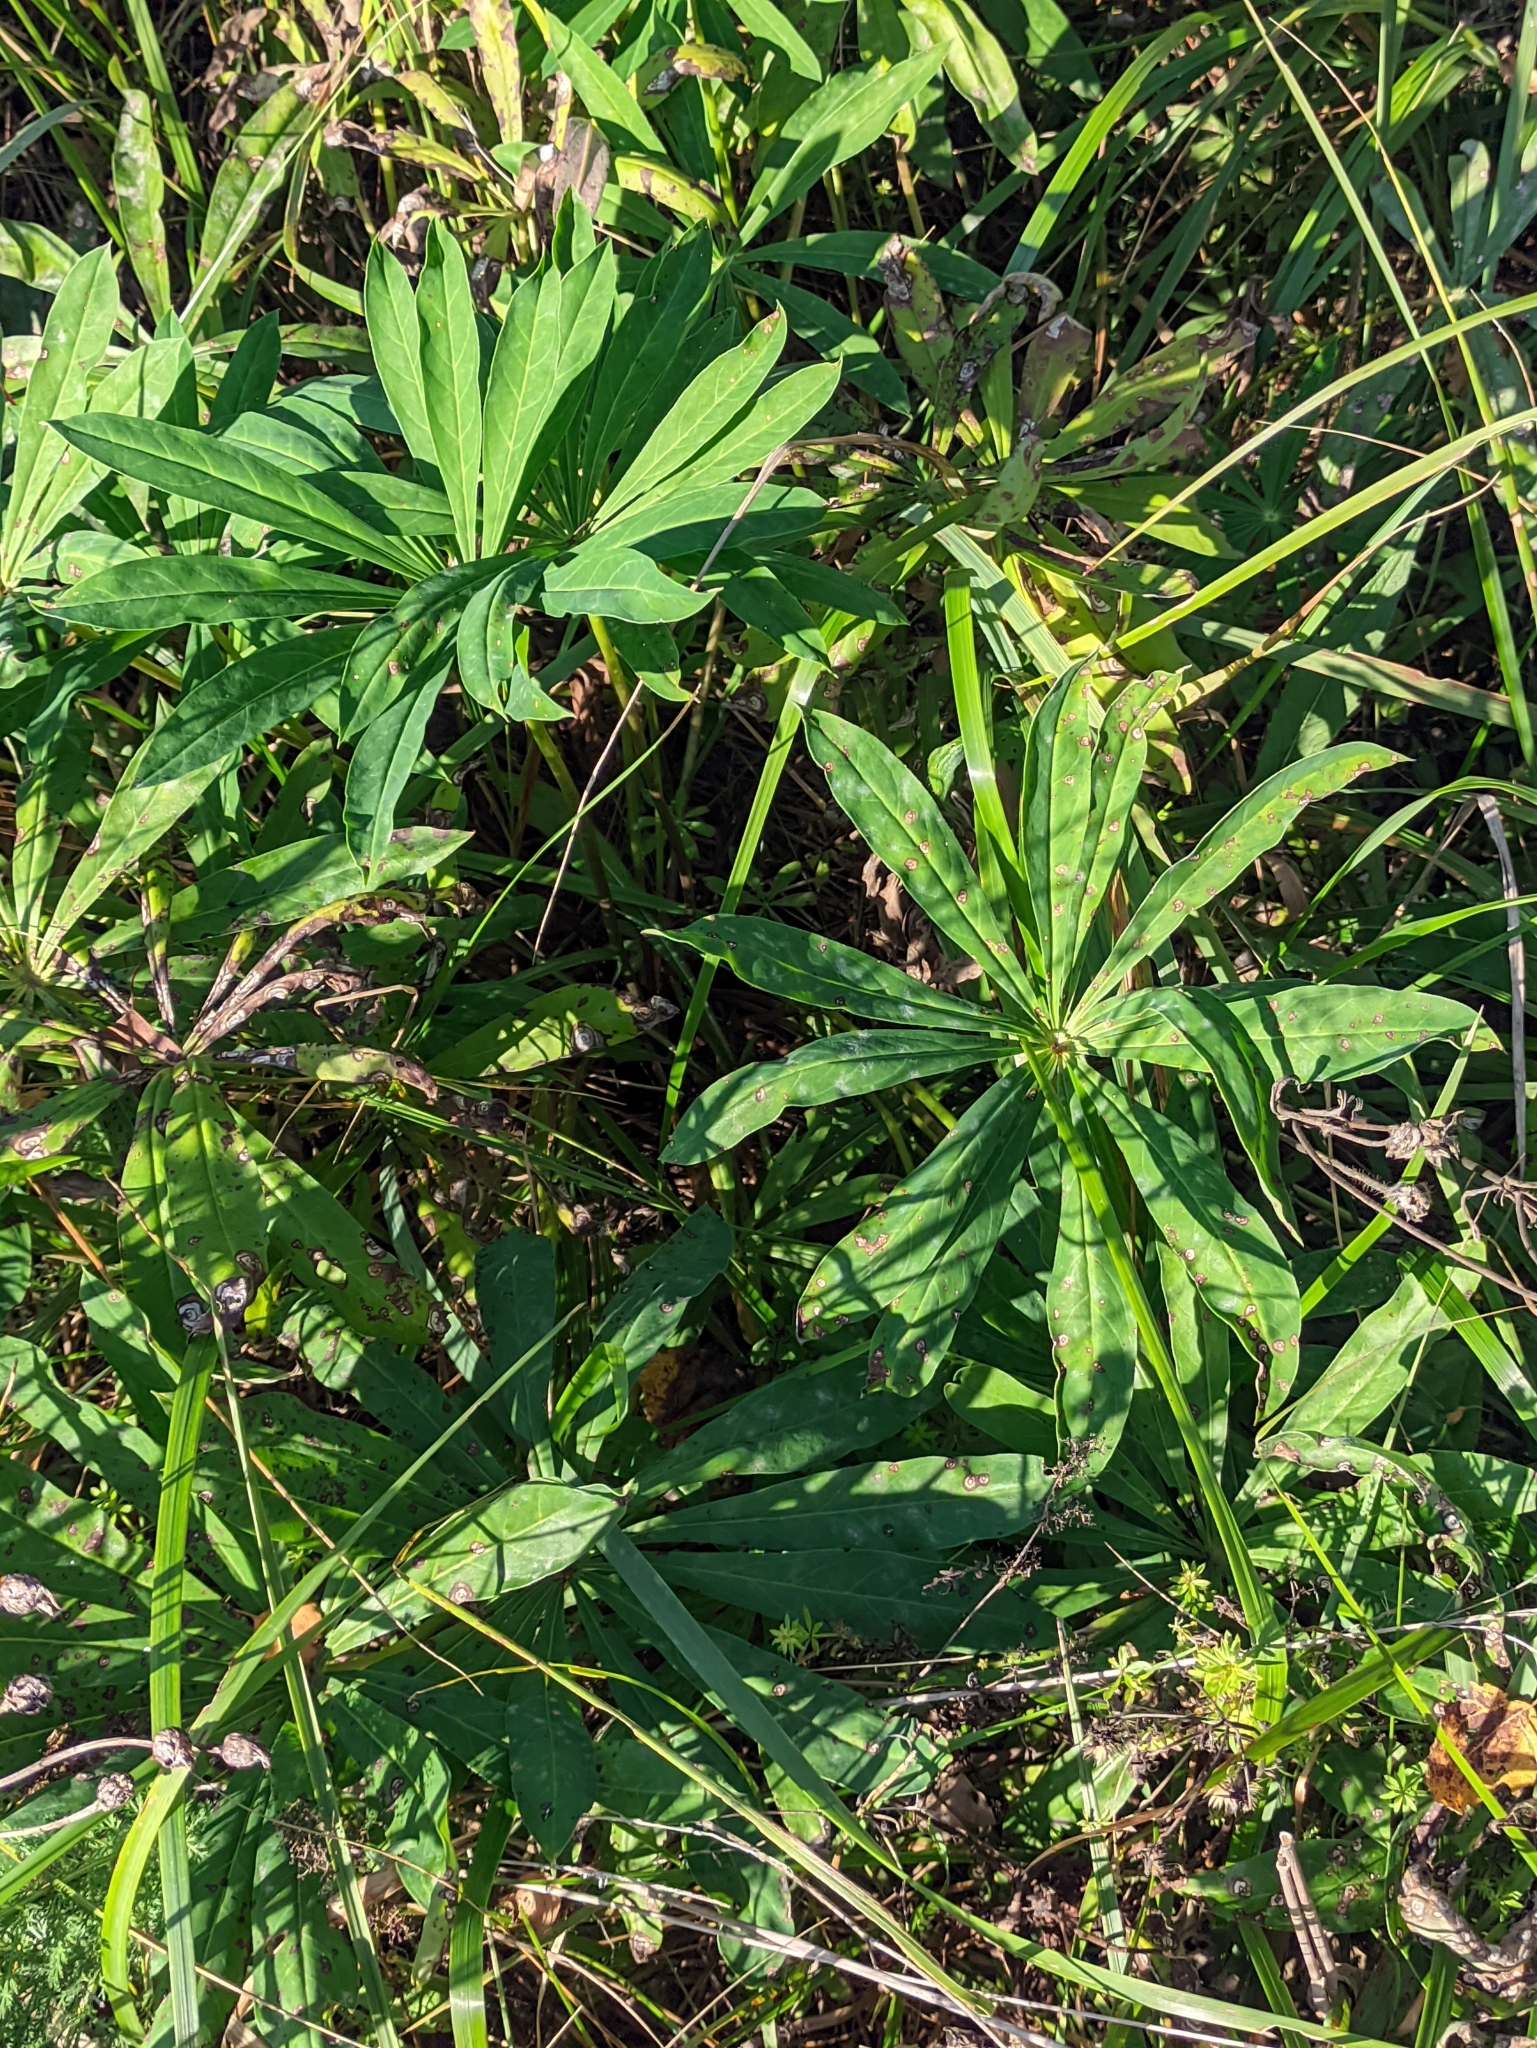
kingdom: Plantae
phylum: Tracheophyta
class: Magnoliopsida
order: Fabales
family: Fabaceae
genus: Lupinus
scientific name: Lupinus polyphyllus
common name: Garden lupin
